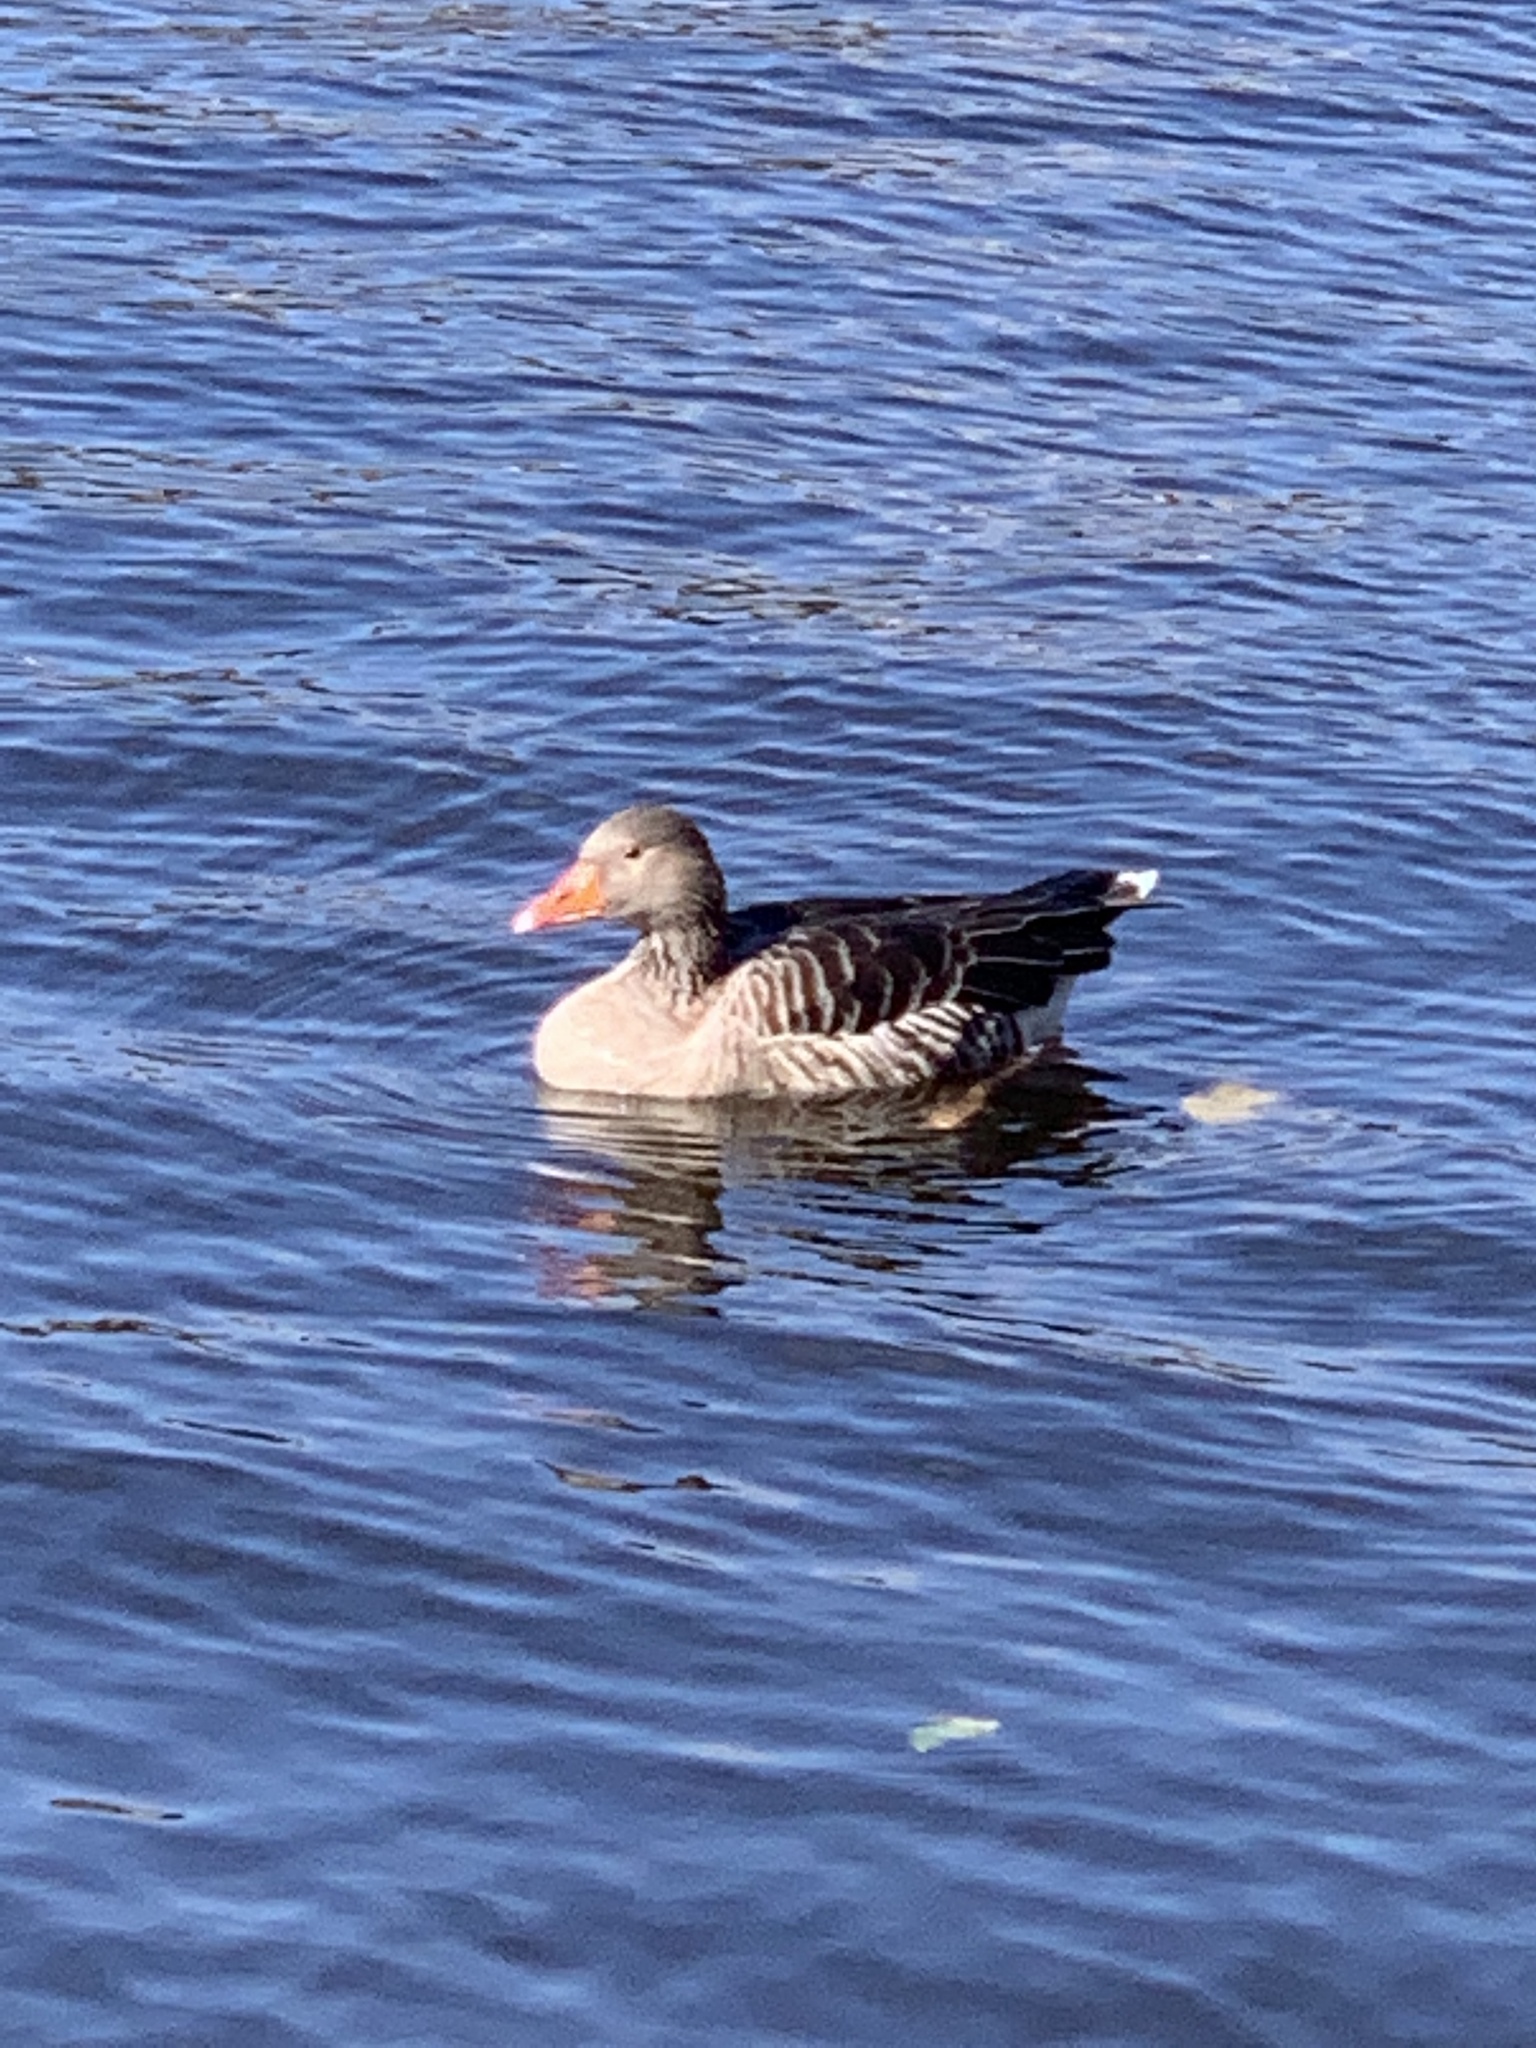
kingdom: Animalia
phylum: Chordata
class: Aves
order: Anseriformes
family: Anatidae
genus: Anser
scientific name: Anser anser
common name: Greylag goose
